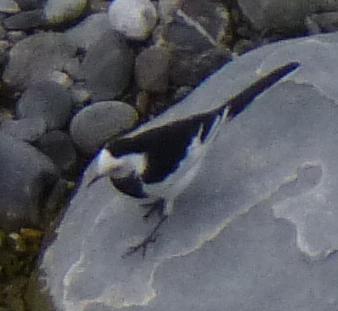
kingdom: Animalia
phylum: Chordata
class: Aves
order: Passeriformes
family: Motacillidae
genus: Motacilla
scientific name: Motacilla alba
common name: White wagtail
